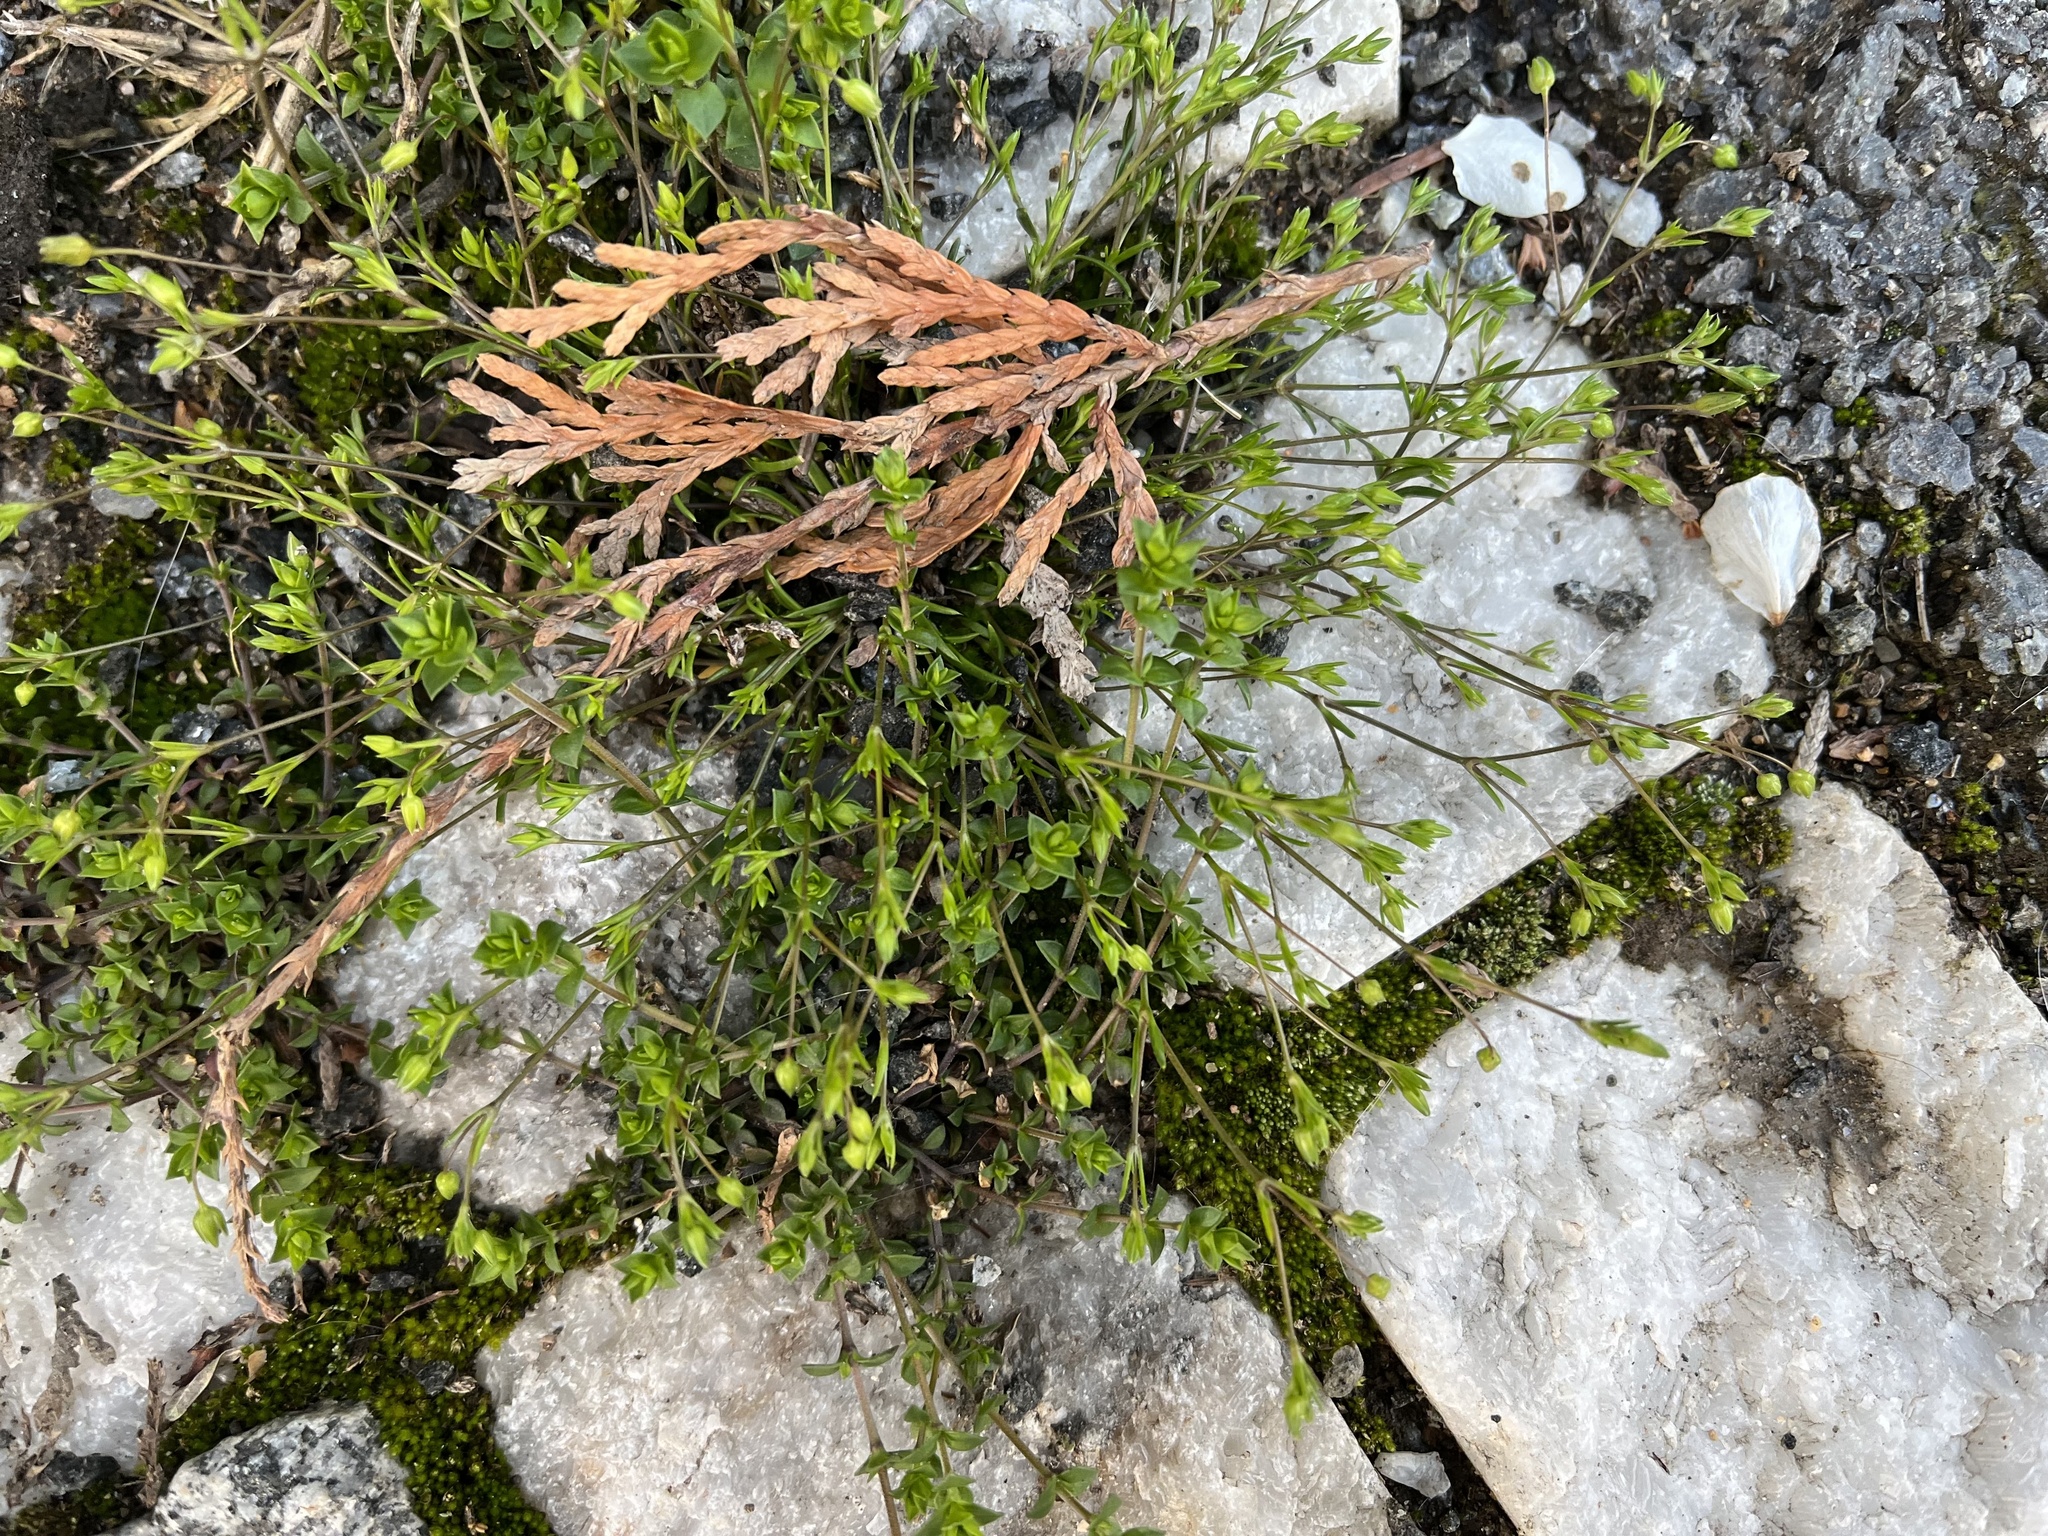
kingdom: Plantae
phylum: Tracheophyta
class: Magnoliopsida
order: Caryophyllales
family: Caryophyllaceae
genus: Arenaria
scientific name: Arenaria serpyllifolia
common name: Thyme-leaved sandwort
